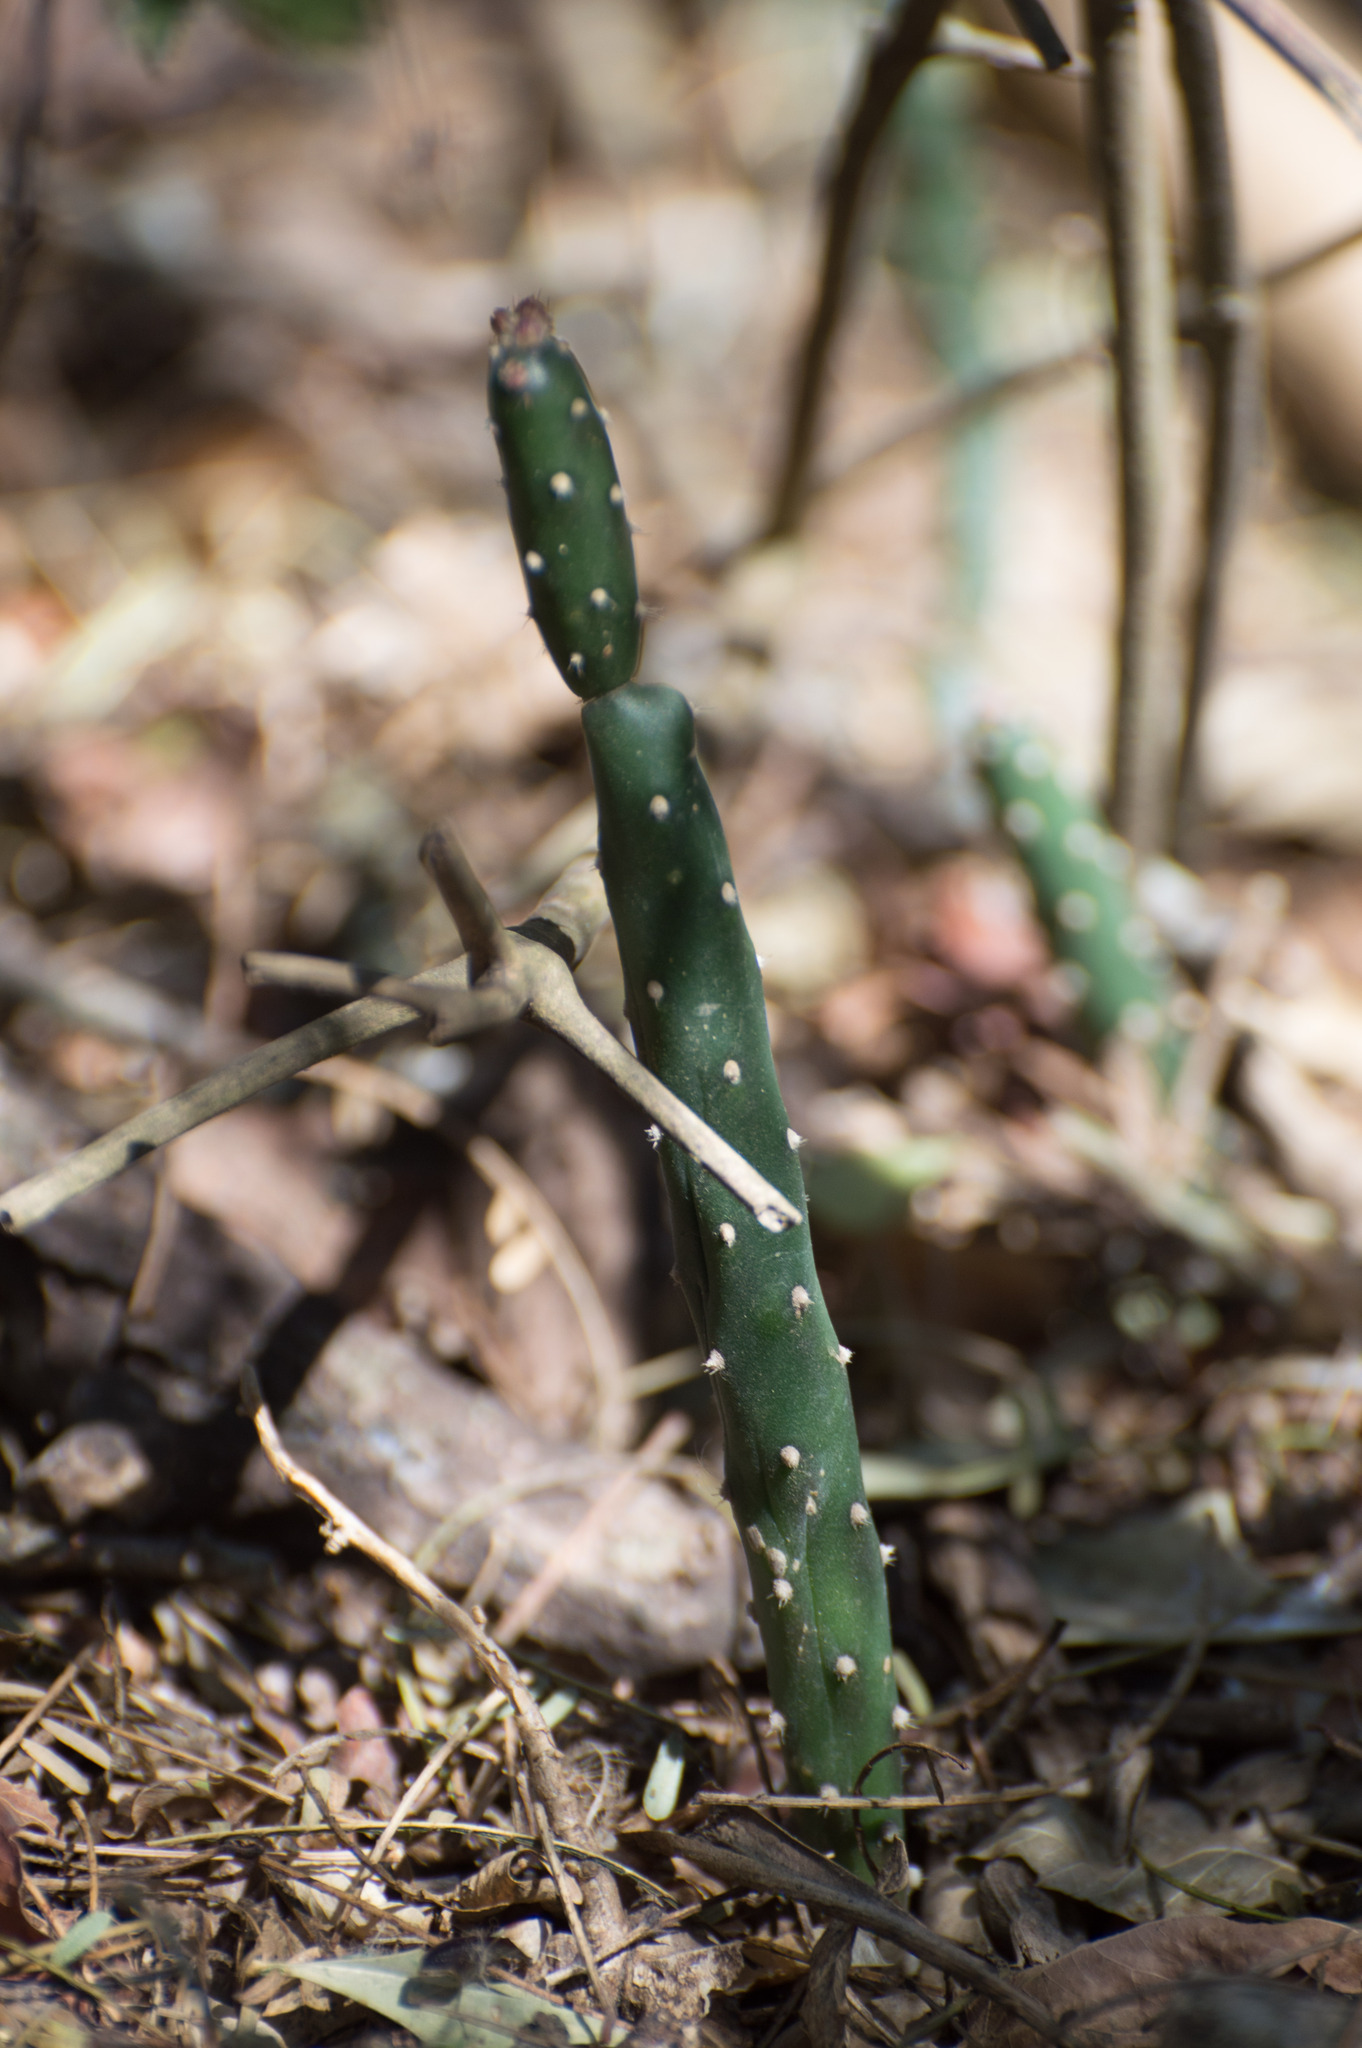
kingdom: Plantae
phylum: Tracheophyta
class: Magnoliopsida
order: Caryophyllales
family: Cactaceae
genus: Salmonopuntia
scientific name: Salmonopuntia salmiana
